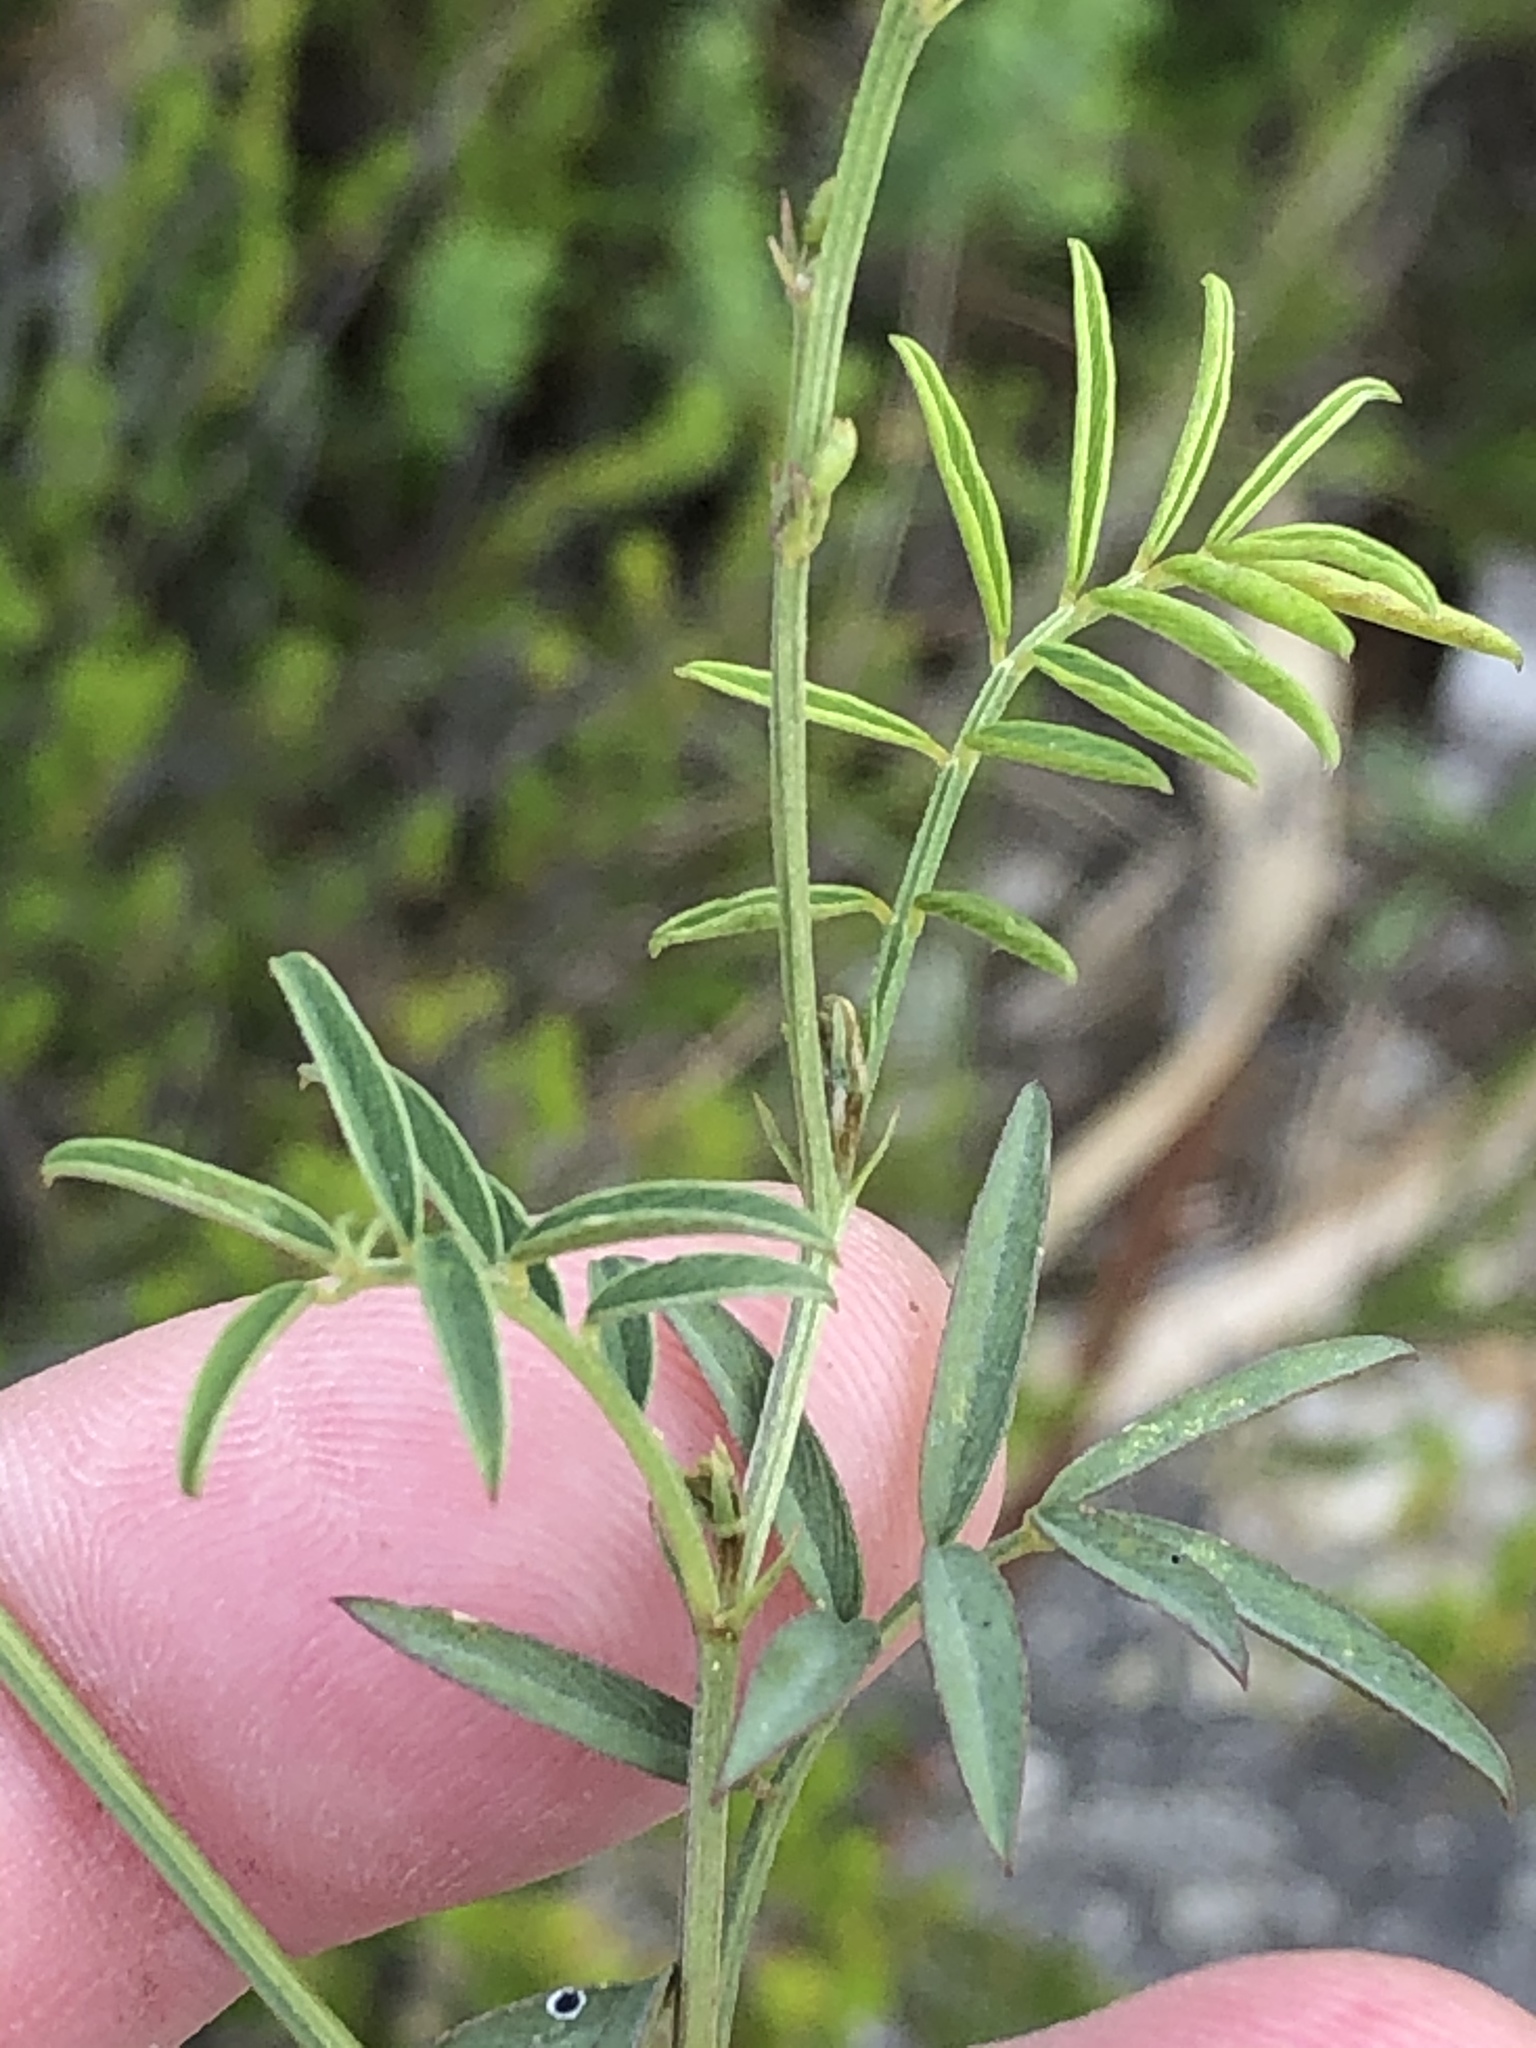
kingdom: Plantae
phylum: Tracheophyta
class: Magnoliopsida
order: Fabales
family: Fabaceae
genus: Tephrosia
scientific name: Tephrosia capensis
